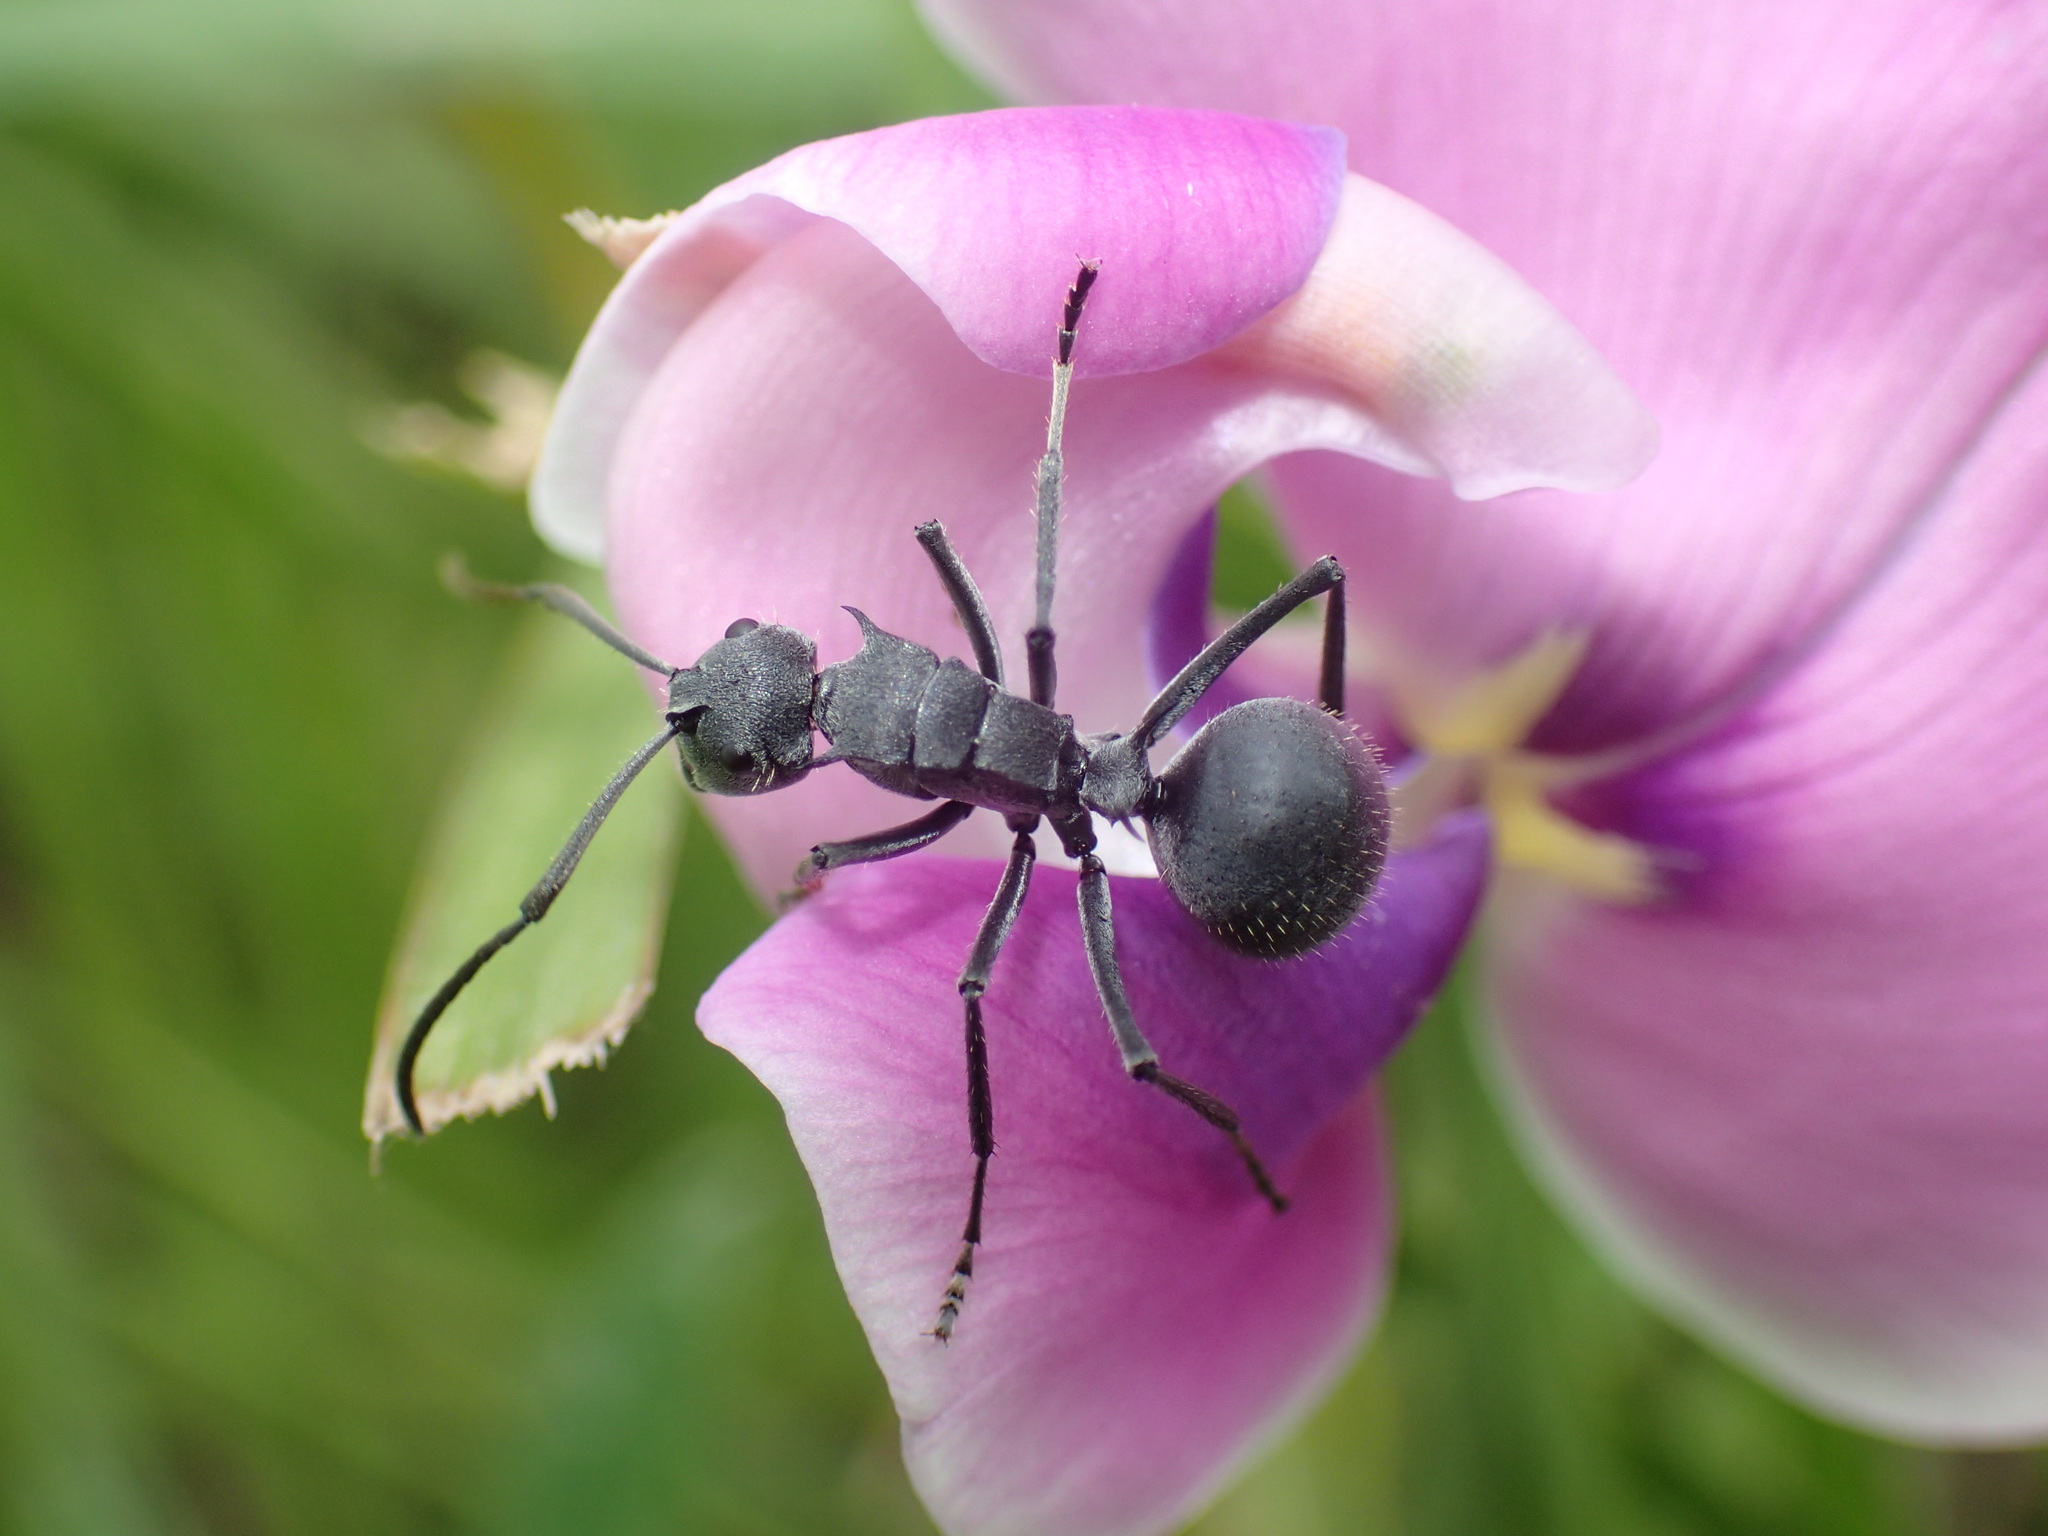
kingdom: Animalia
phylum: Arthropoda
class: Insecta
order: Hymenoptera
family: Formicidae
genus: Polyrhachis
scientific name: Polyrhachis schistacea
